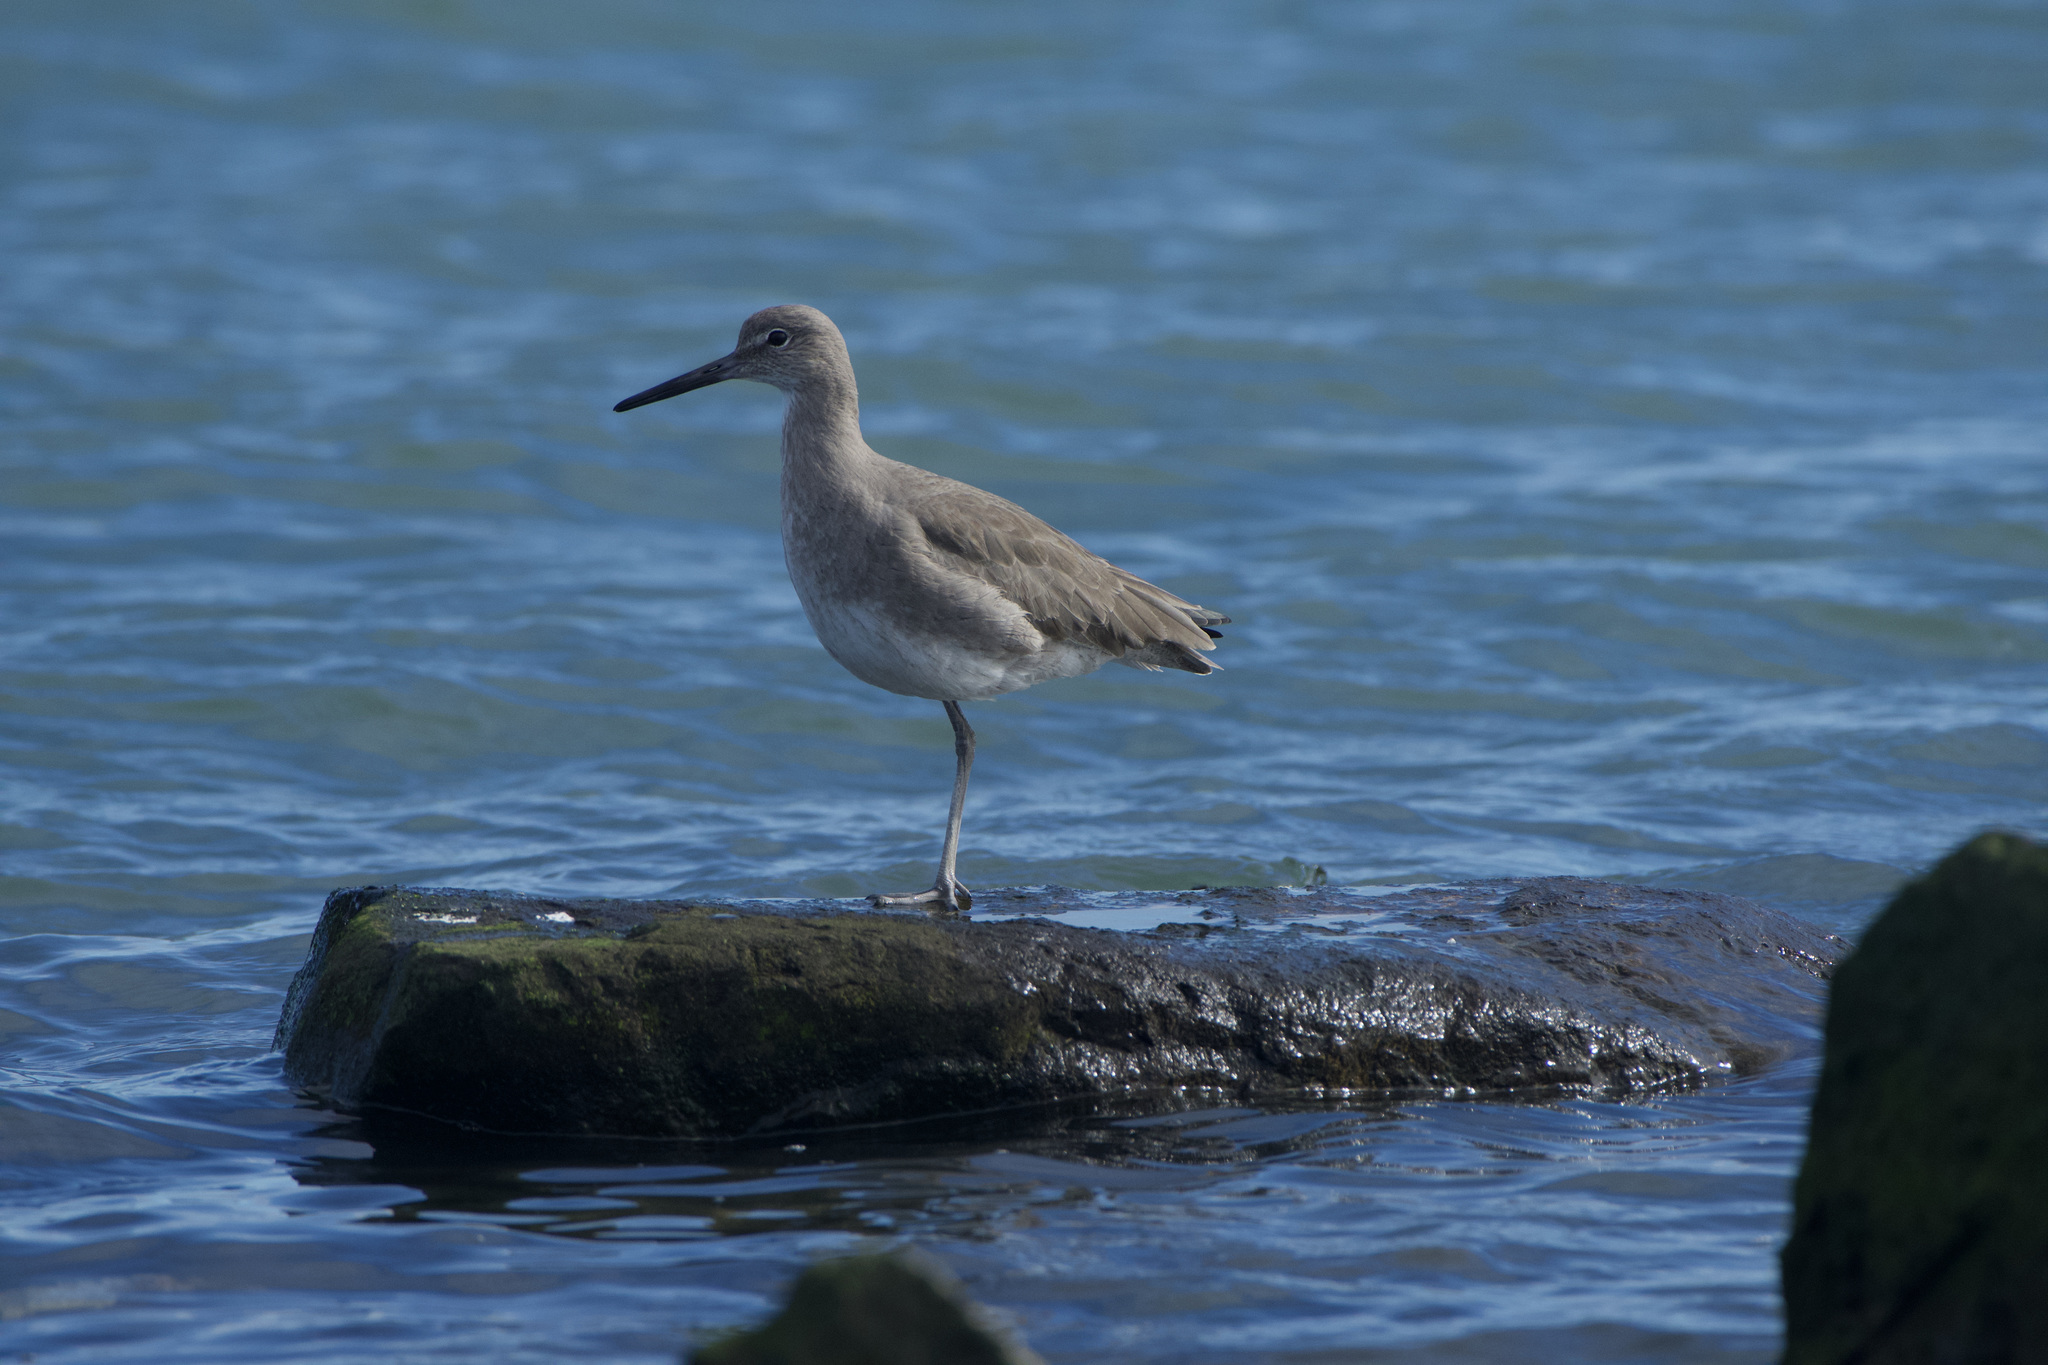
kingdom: Animalia
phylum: Chordata
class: Aves
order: Charadriiformes
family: Scolopacidae
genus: Tringa
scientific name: Tringa semipalmata
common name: Willet
